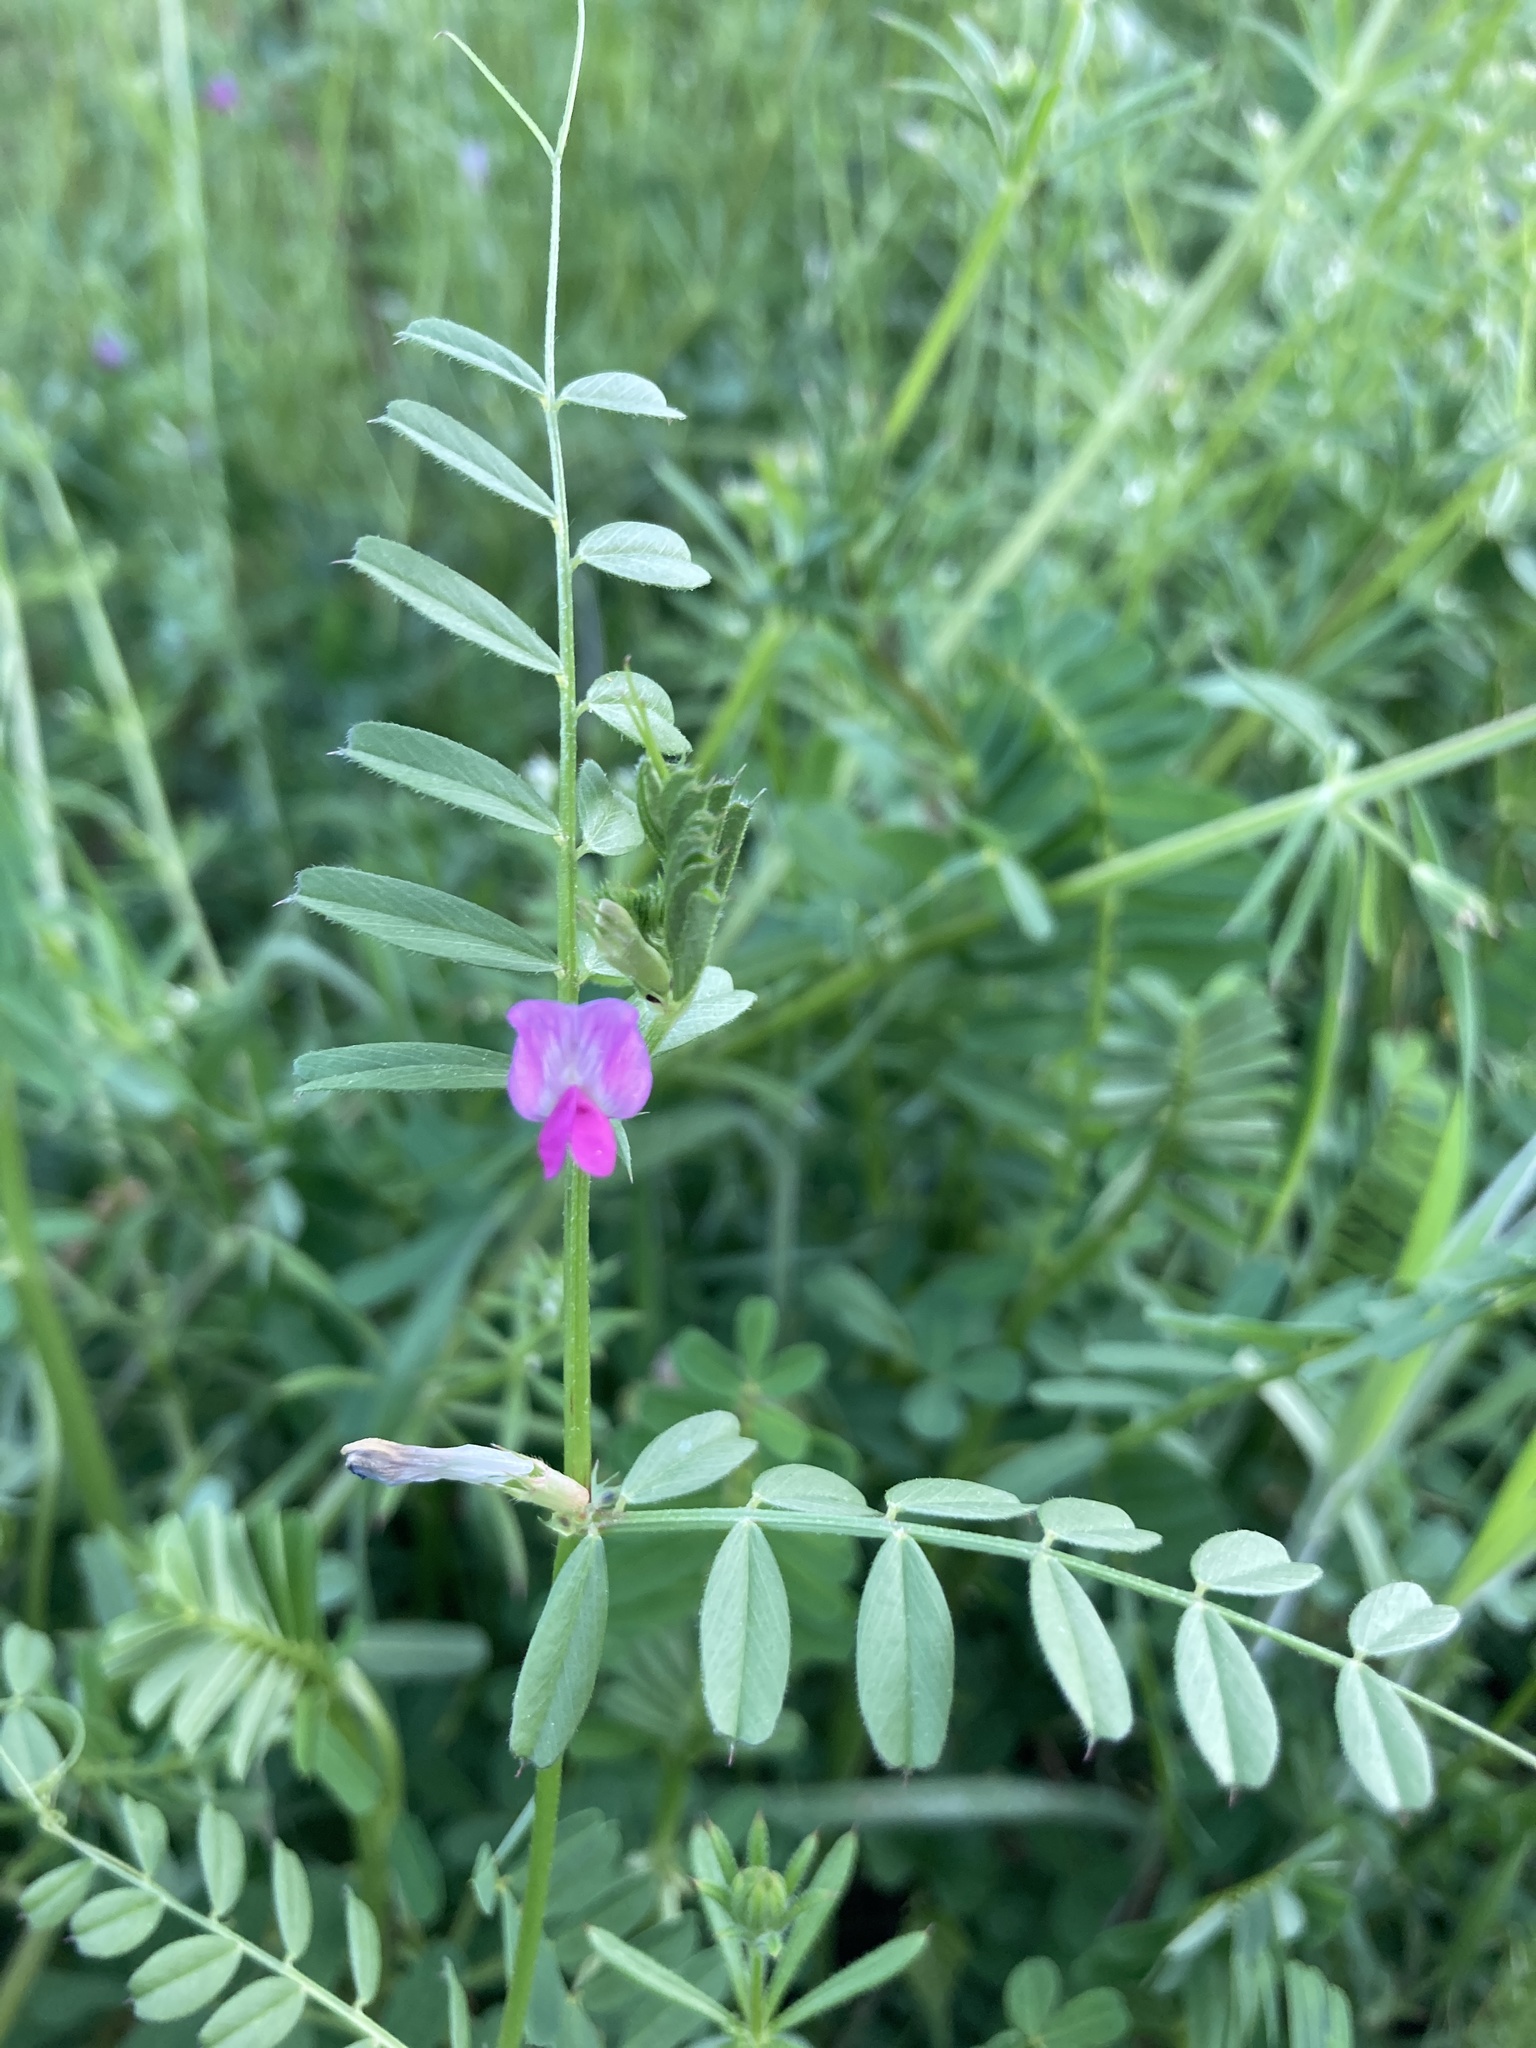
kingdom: Plantae
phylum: Tracheophyta
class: Magnoliopsida
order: Fabales
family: Fabaceae
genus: Vicia
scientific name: Vicia sativa
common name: Garden vetch
